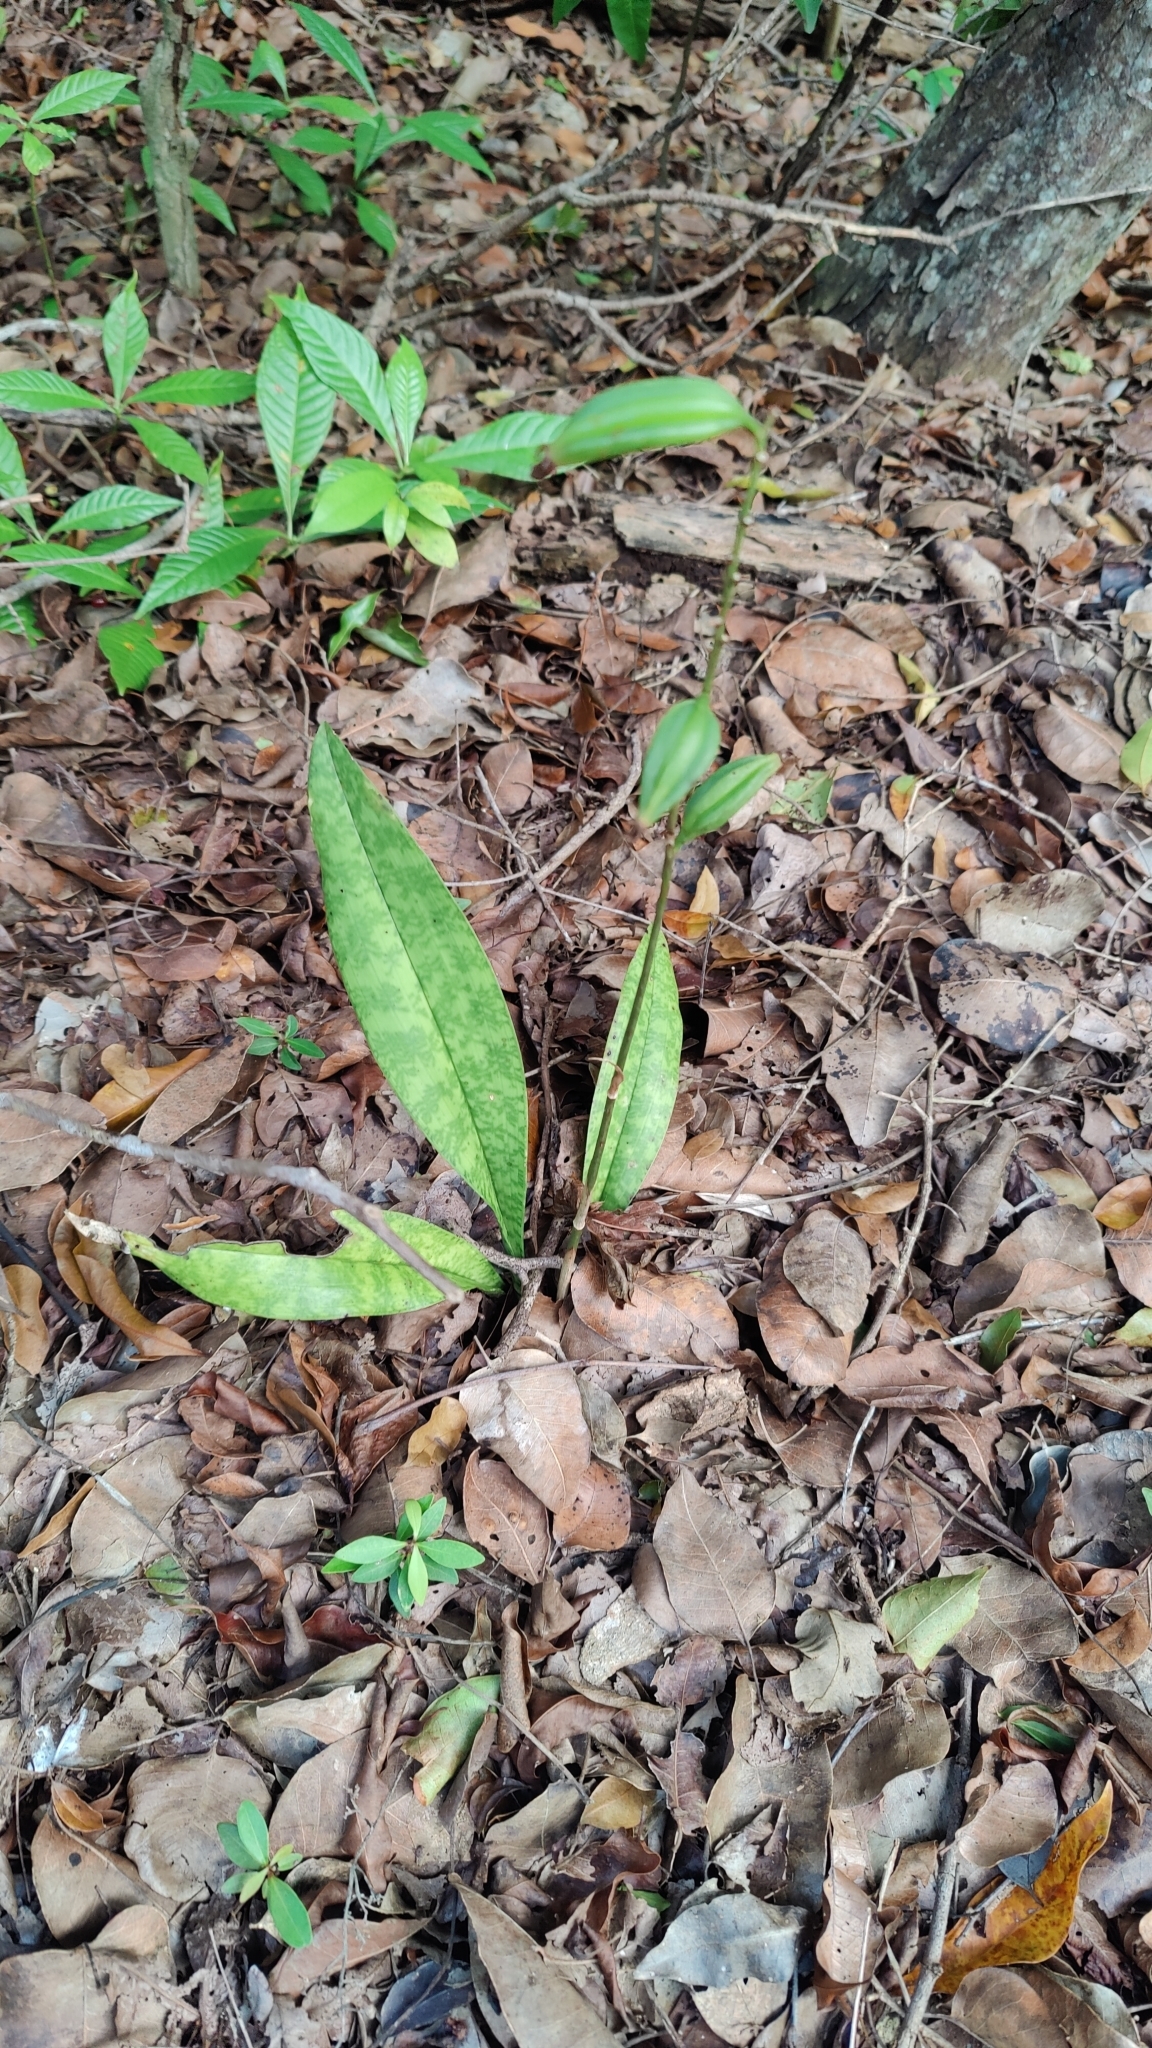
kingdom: Plantae
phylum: Tracheophyta
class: Liliopsida
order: Asparagales
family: Orchidaceae
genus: Eulophia
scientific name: Eulophia maculata
